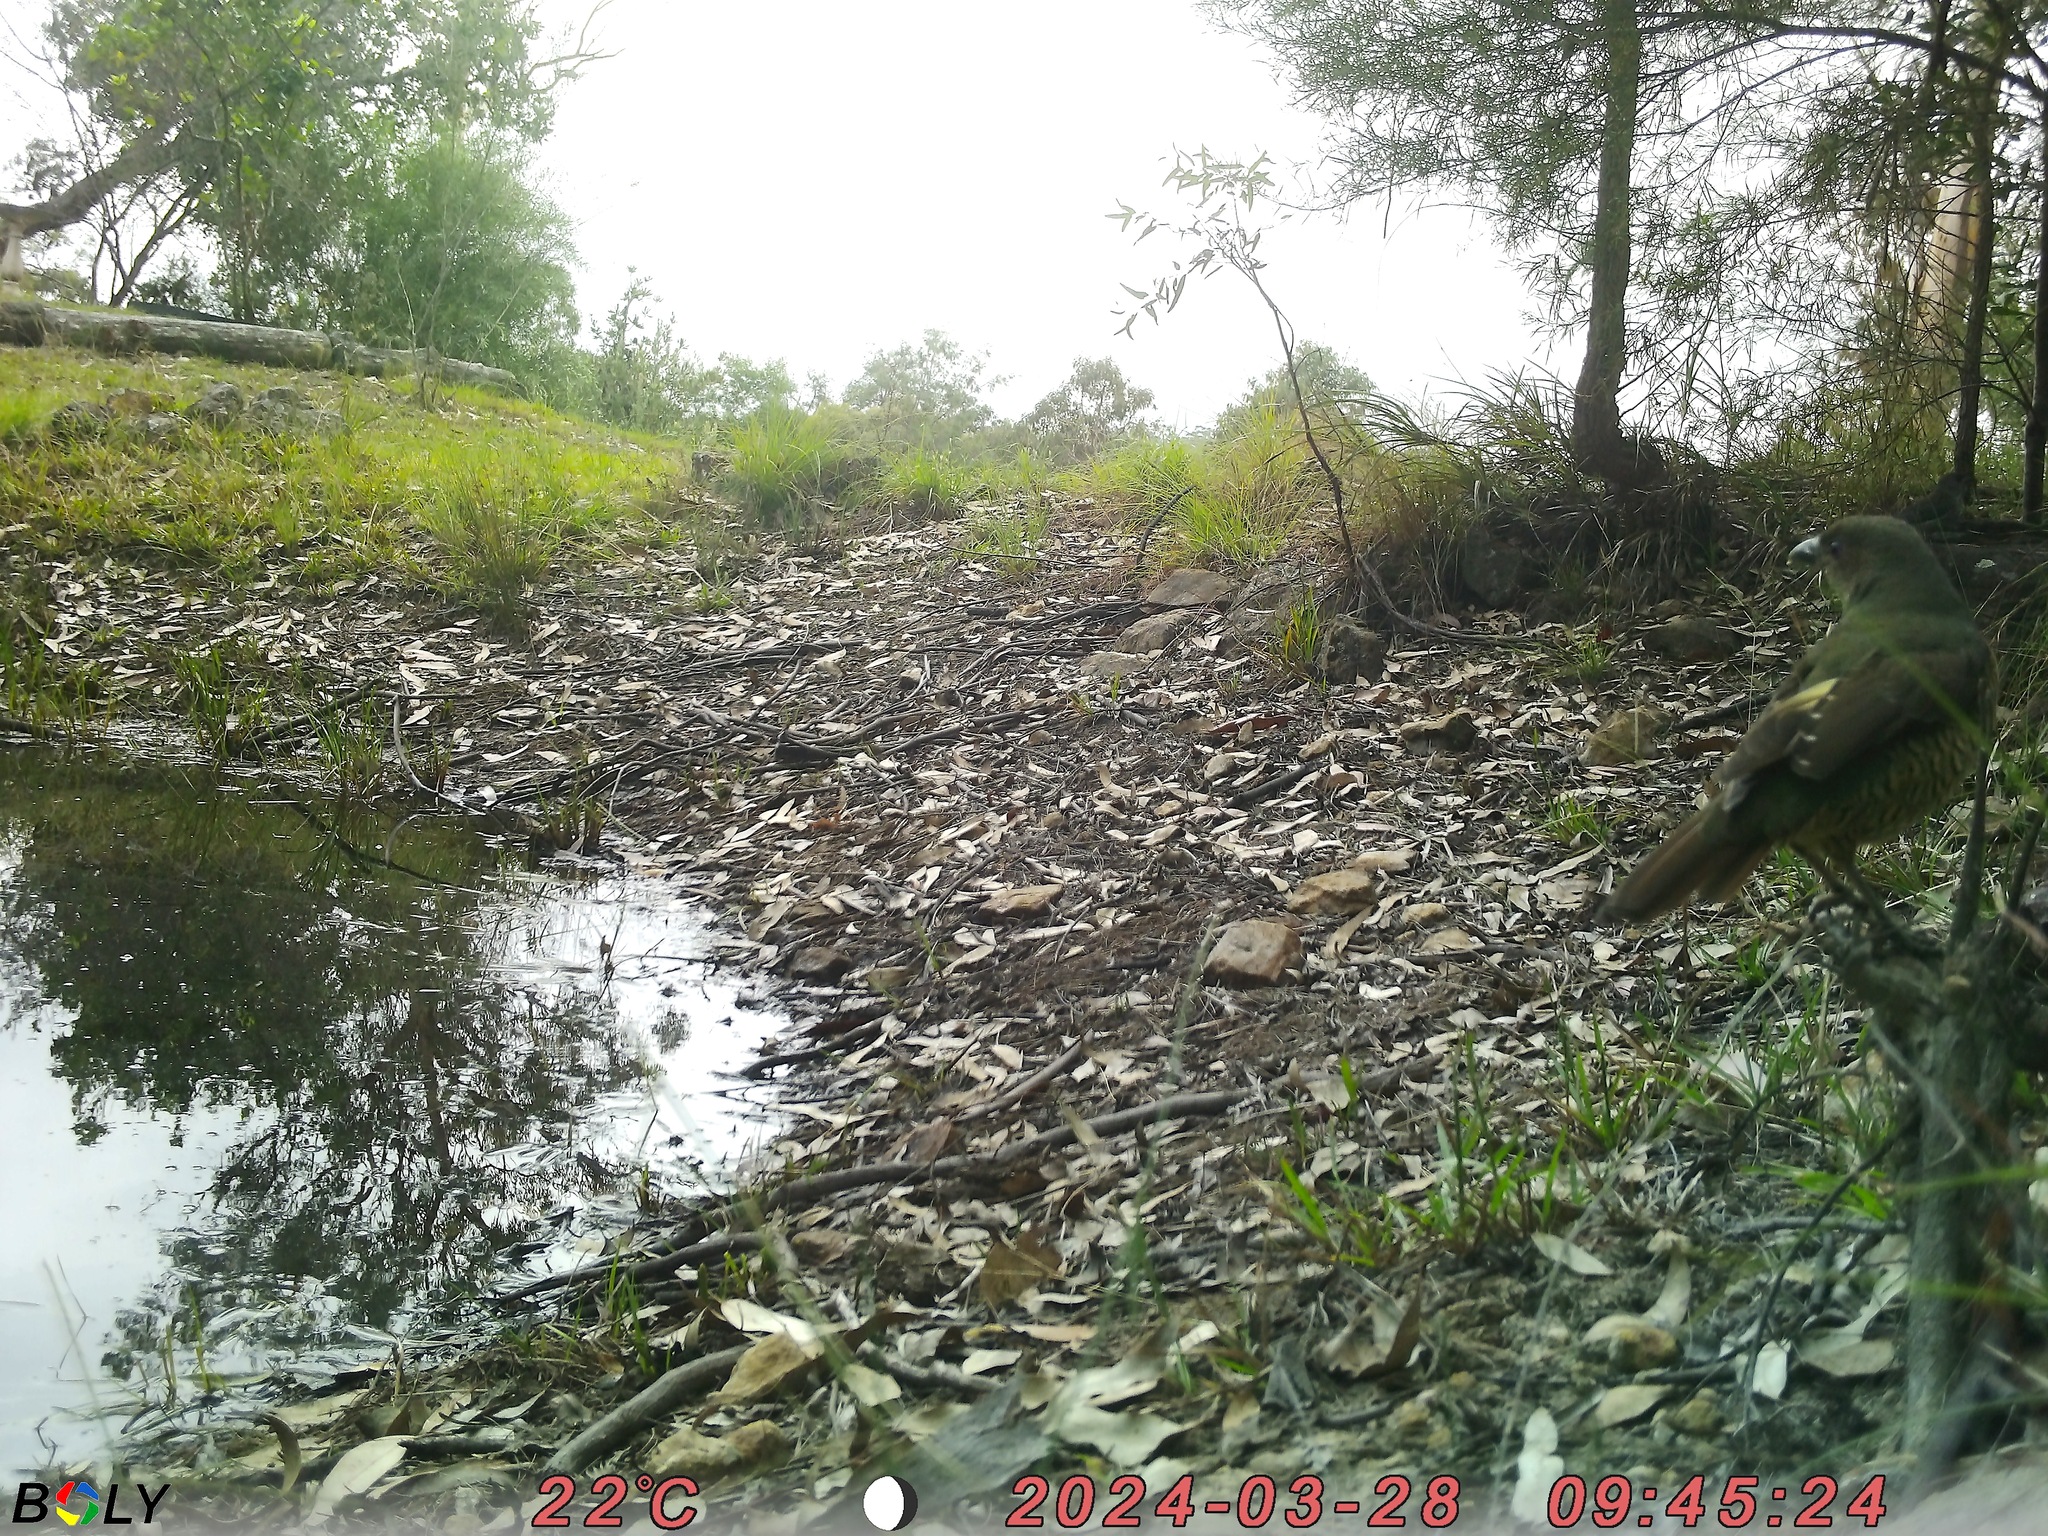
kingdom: Animalia
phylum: Chordata
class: Aves
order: Passeriformes
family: Ptilonorhynchidae
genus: Ptilonorhynchus
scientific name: Ptilonorhynchus violaceus
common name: Satin bowerbird
